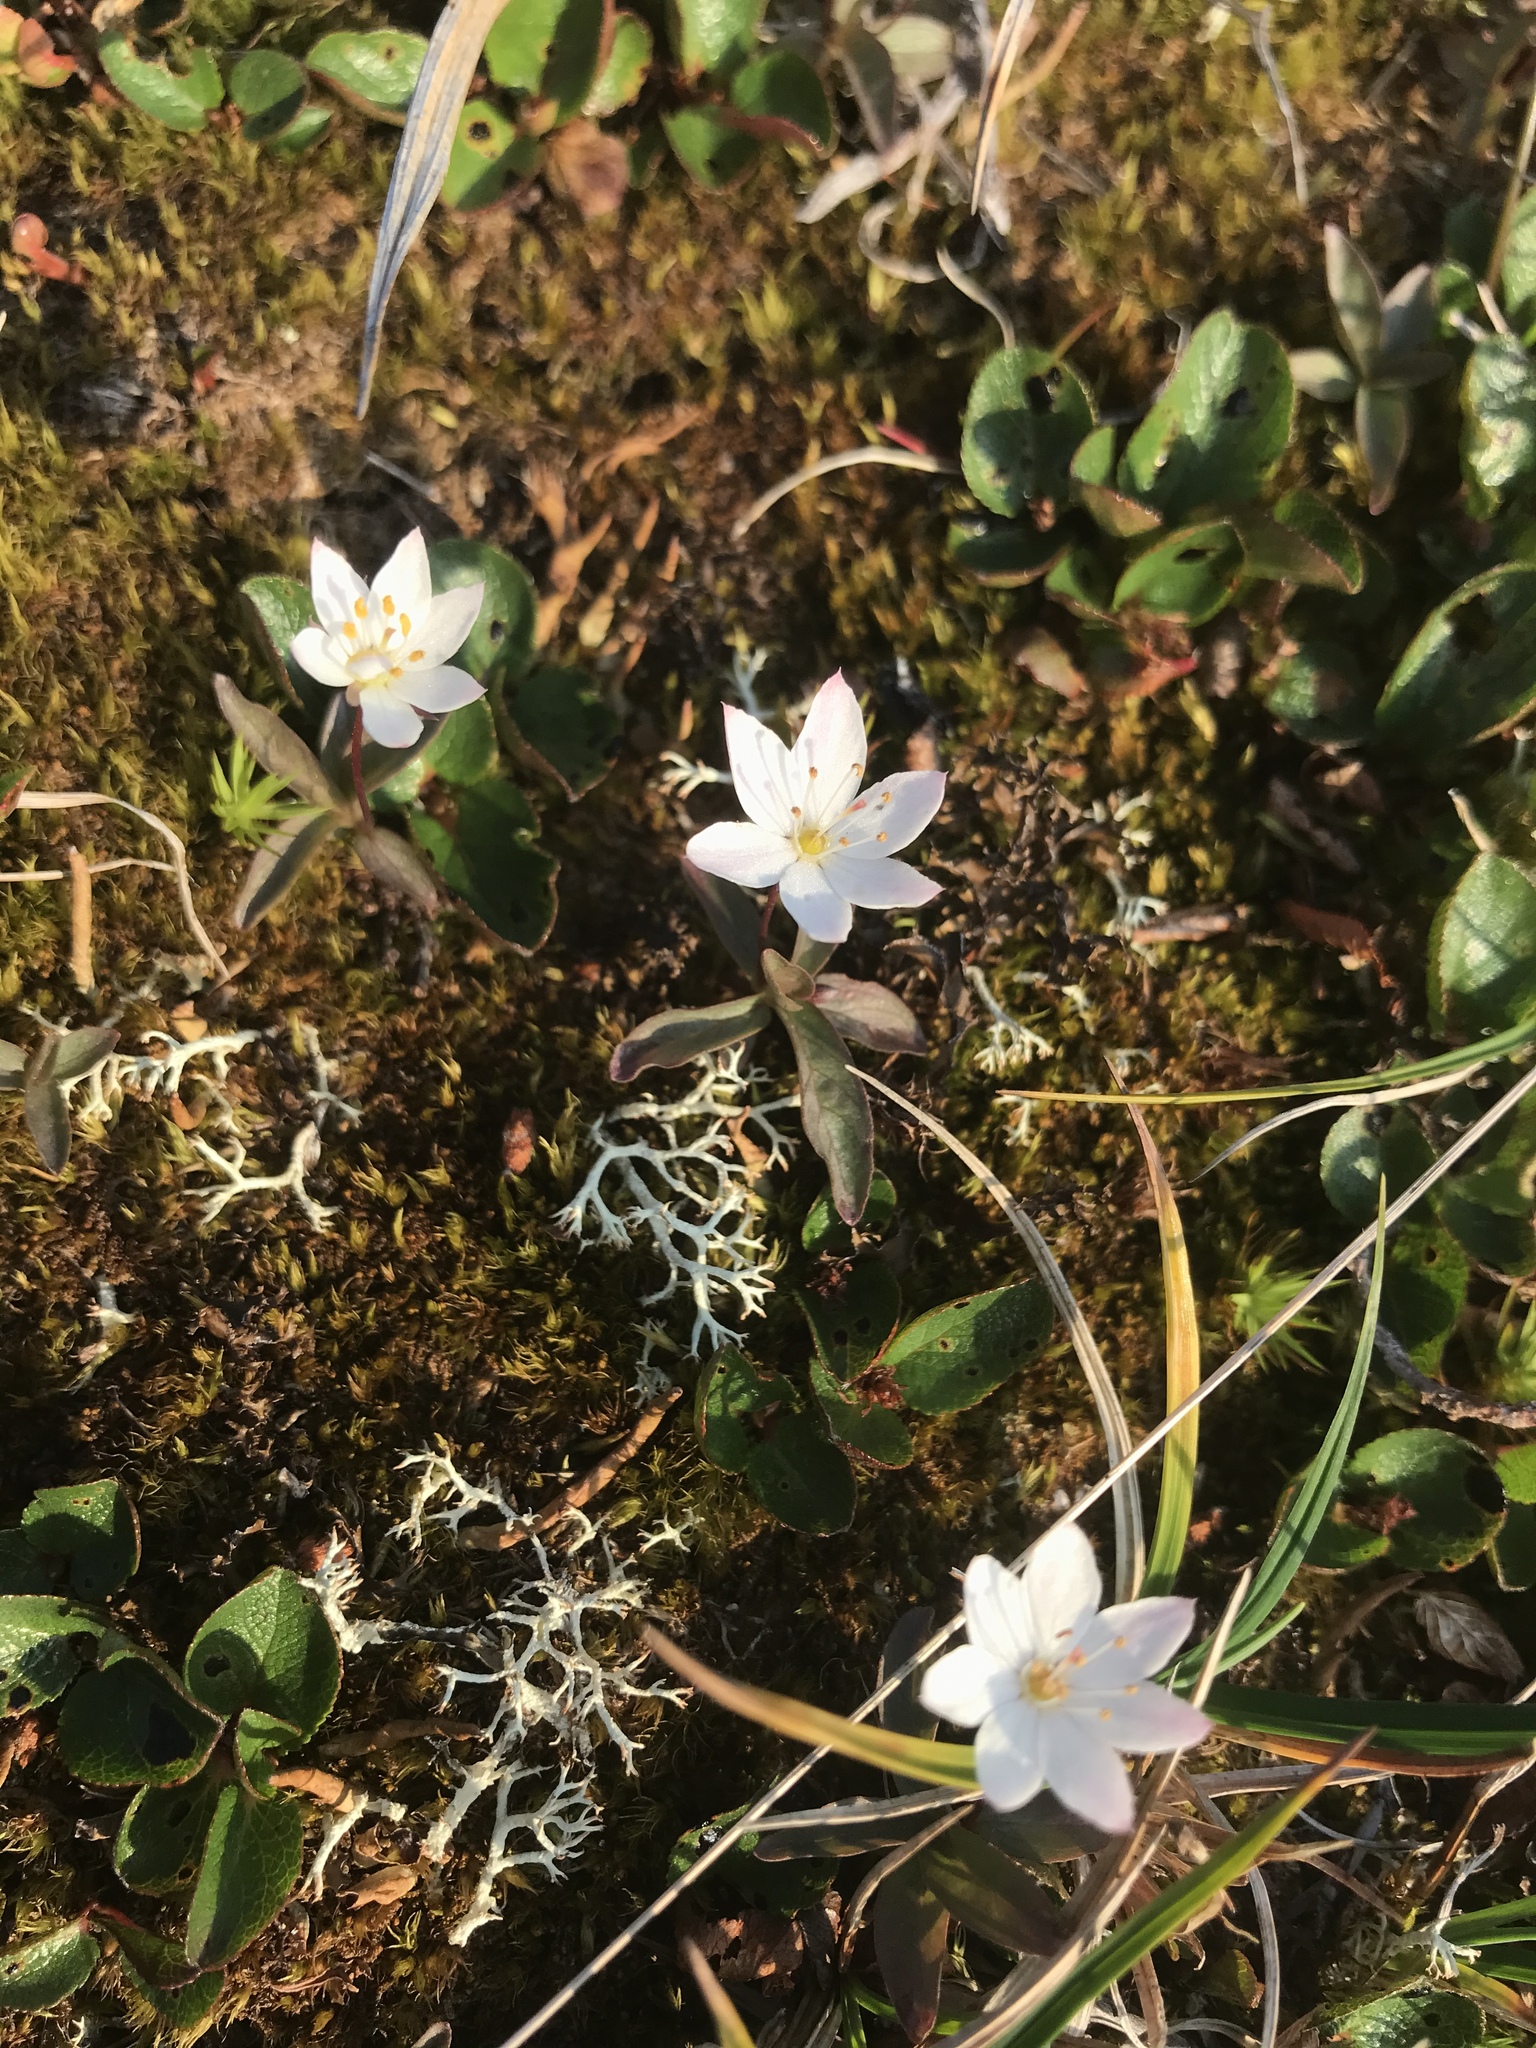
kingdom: Plantae
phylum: Tracheophyta
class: Magnoliopsida
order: Ericales
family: Primulaceae
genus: Lysimachia
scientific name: Lysimachia europaea
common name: Arctic starflower
